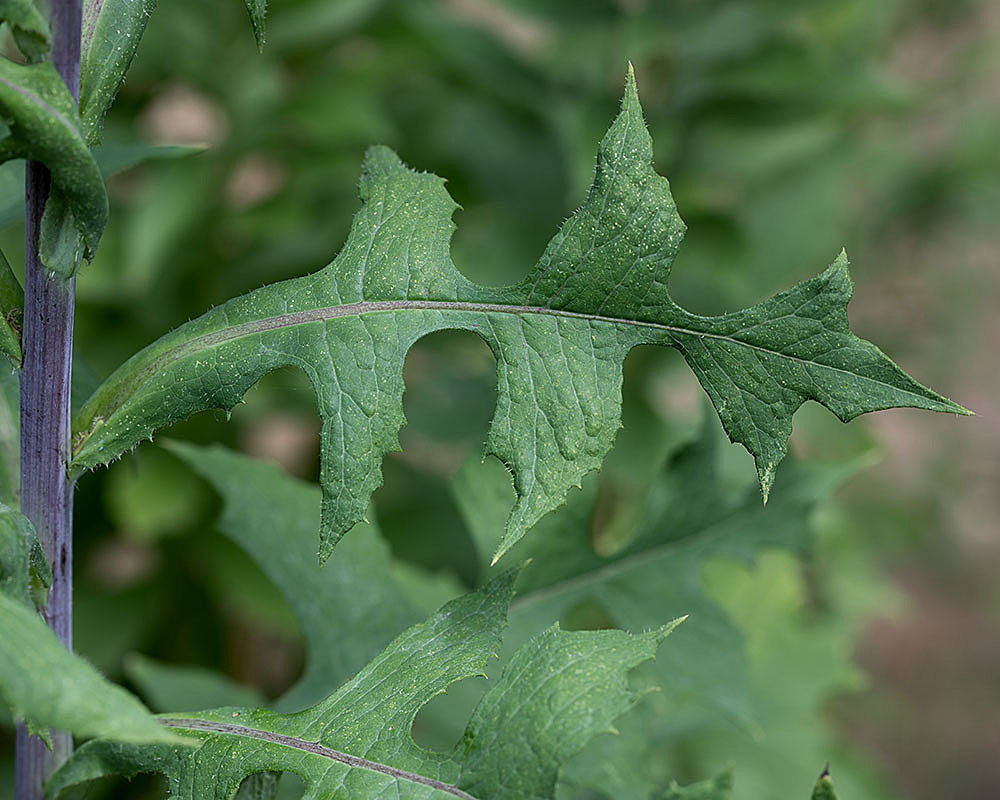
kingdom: Plantae
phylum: Tracheophyta
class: Magnoliopsida
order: Asterales
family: Asteraceae
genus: Lactuca
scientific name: Lactuca biennis
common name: Blue wood lettuce
